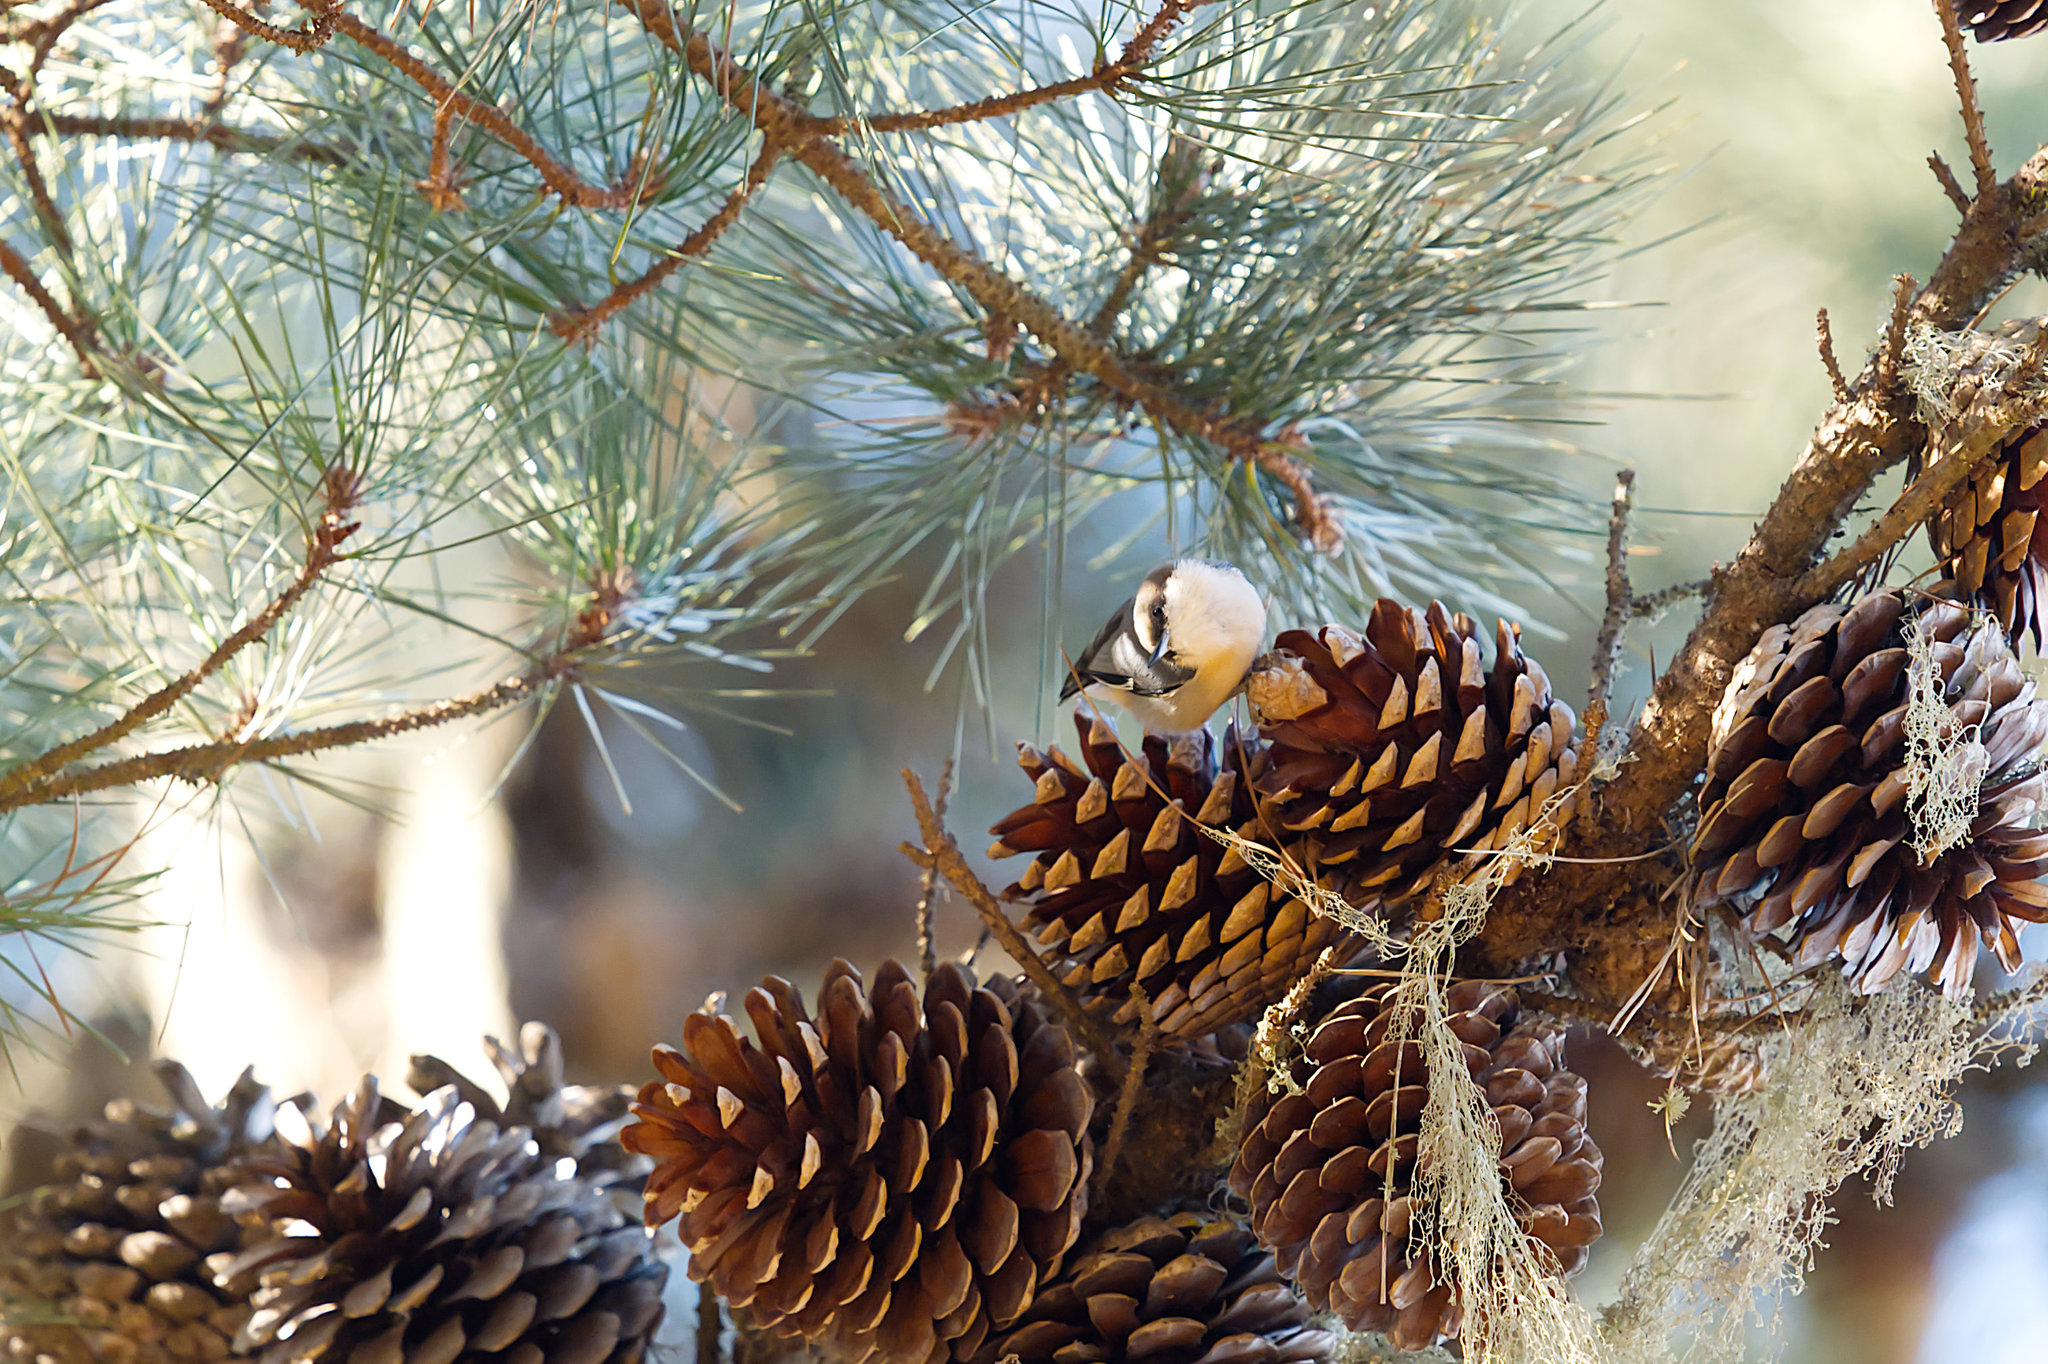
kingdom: Animalia
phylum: Chordata
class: Aves
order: Passeriformes
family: Sittidae
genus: Sitta
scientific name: Sitta pygmaea
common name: Pygmy nuthatch
